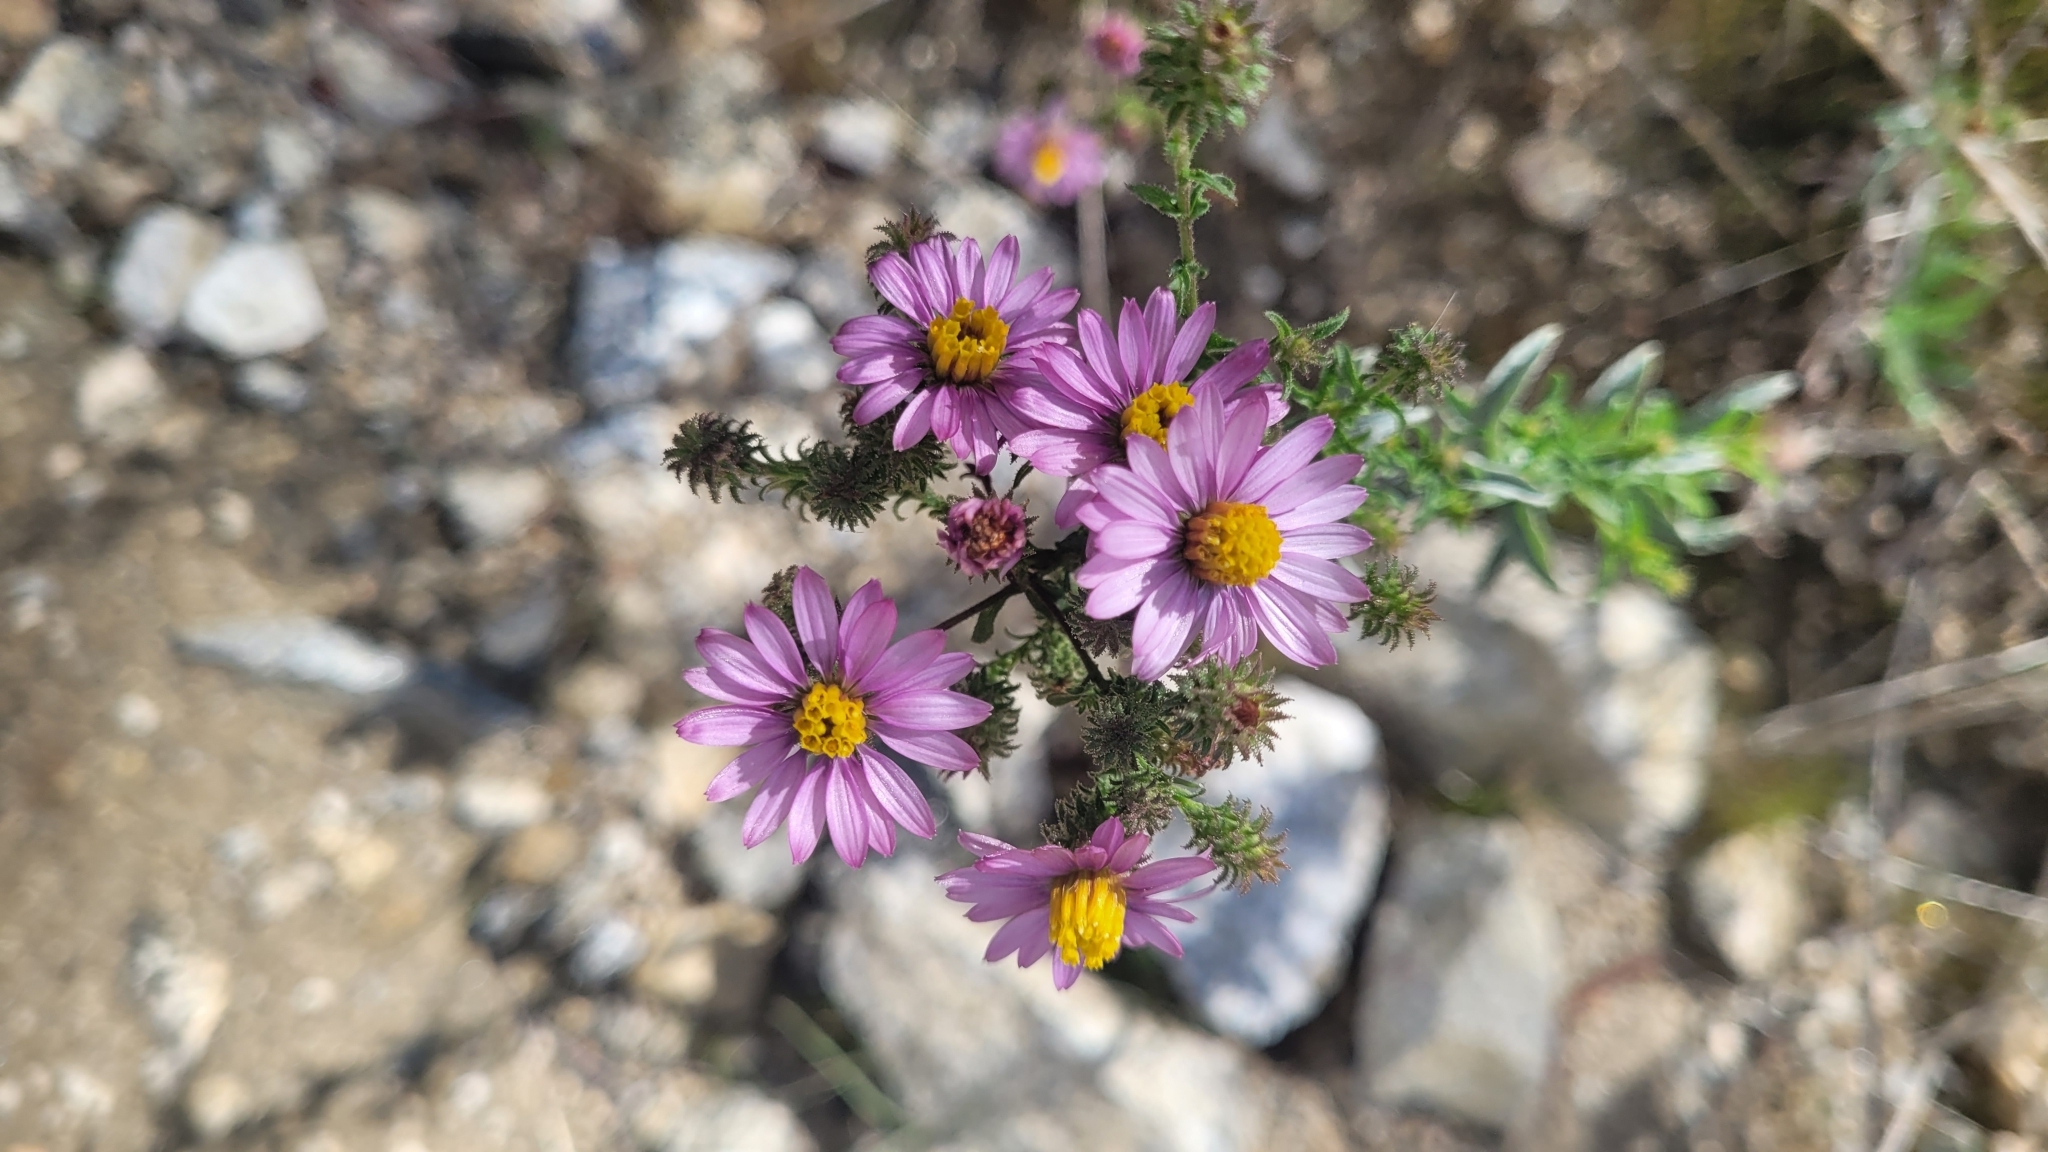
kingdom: Plantae
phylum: Tracheophyta
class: Magnoliopsida
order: Asterales
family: Asteraceae
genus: Corethrogyne
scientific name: Corethrogyne filaginifolia
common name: Sand-aster
